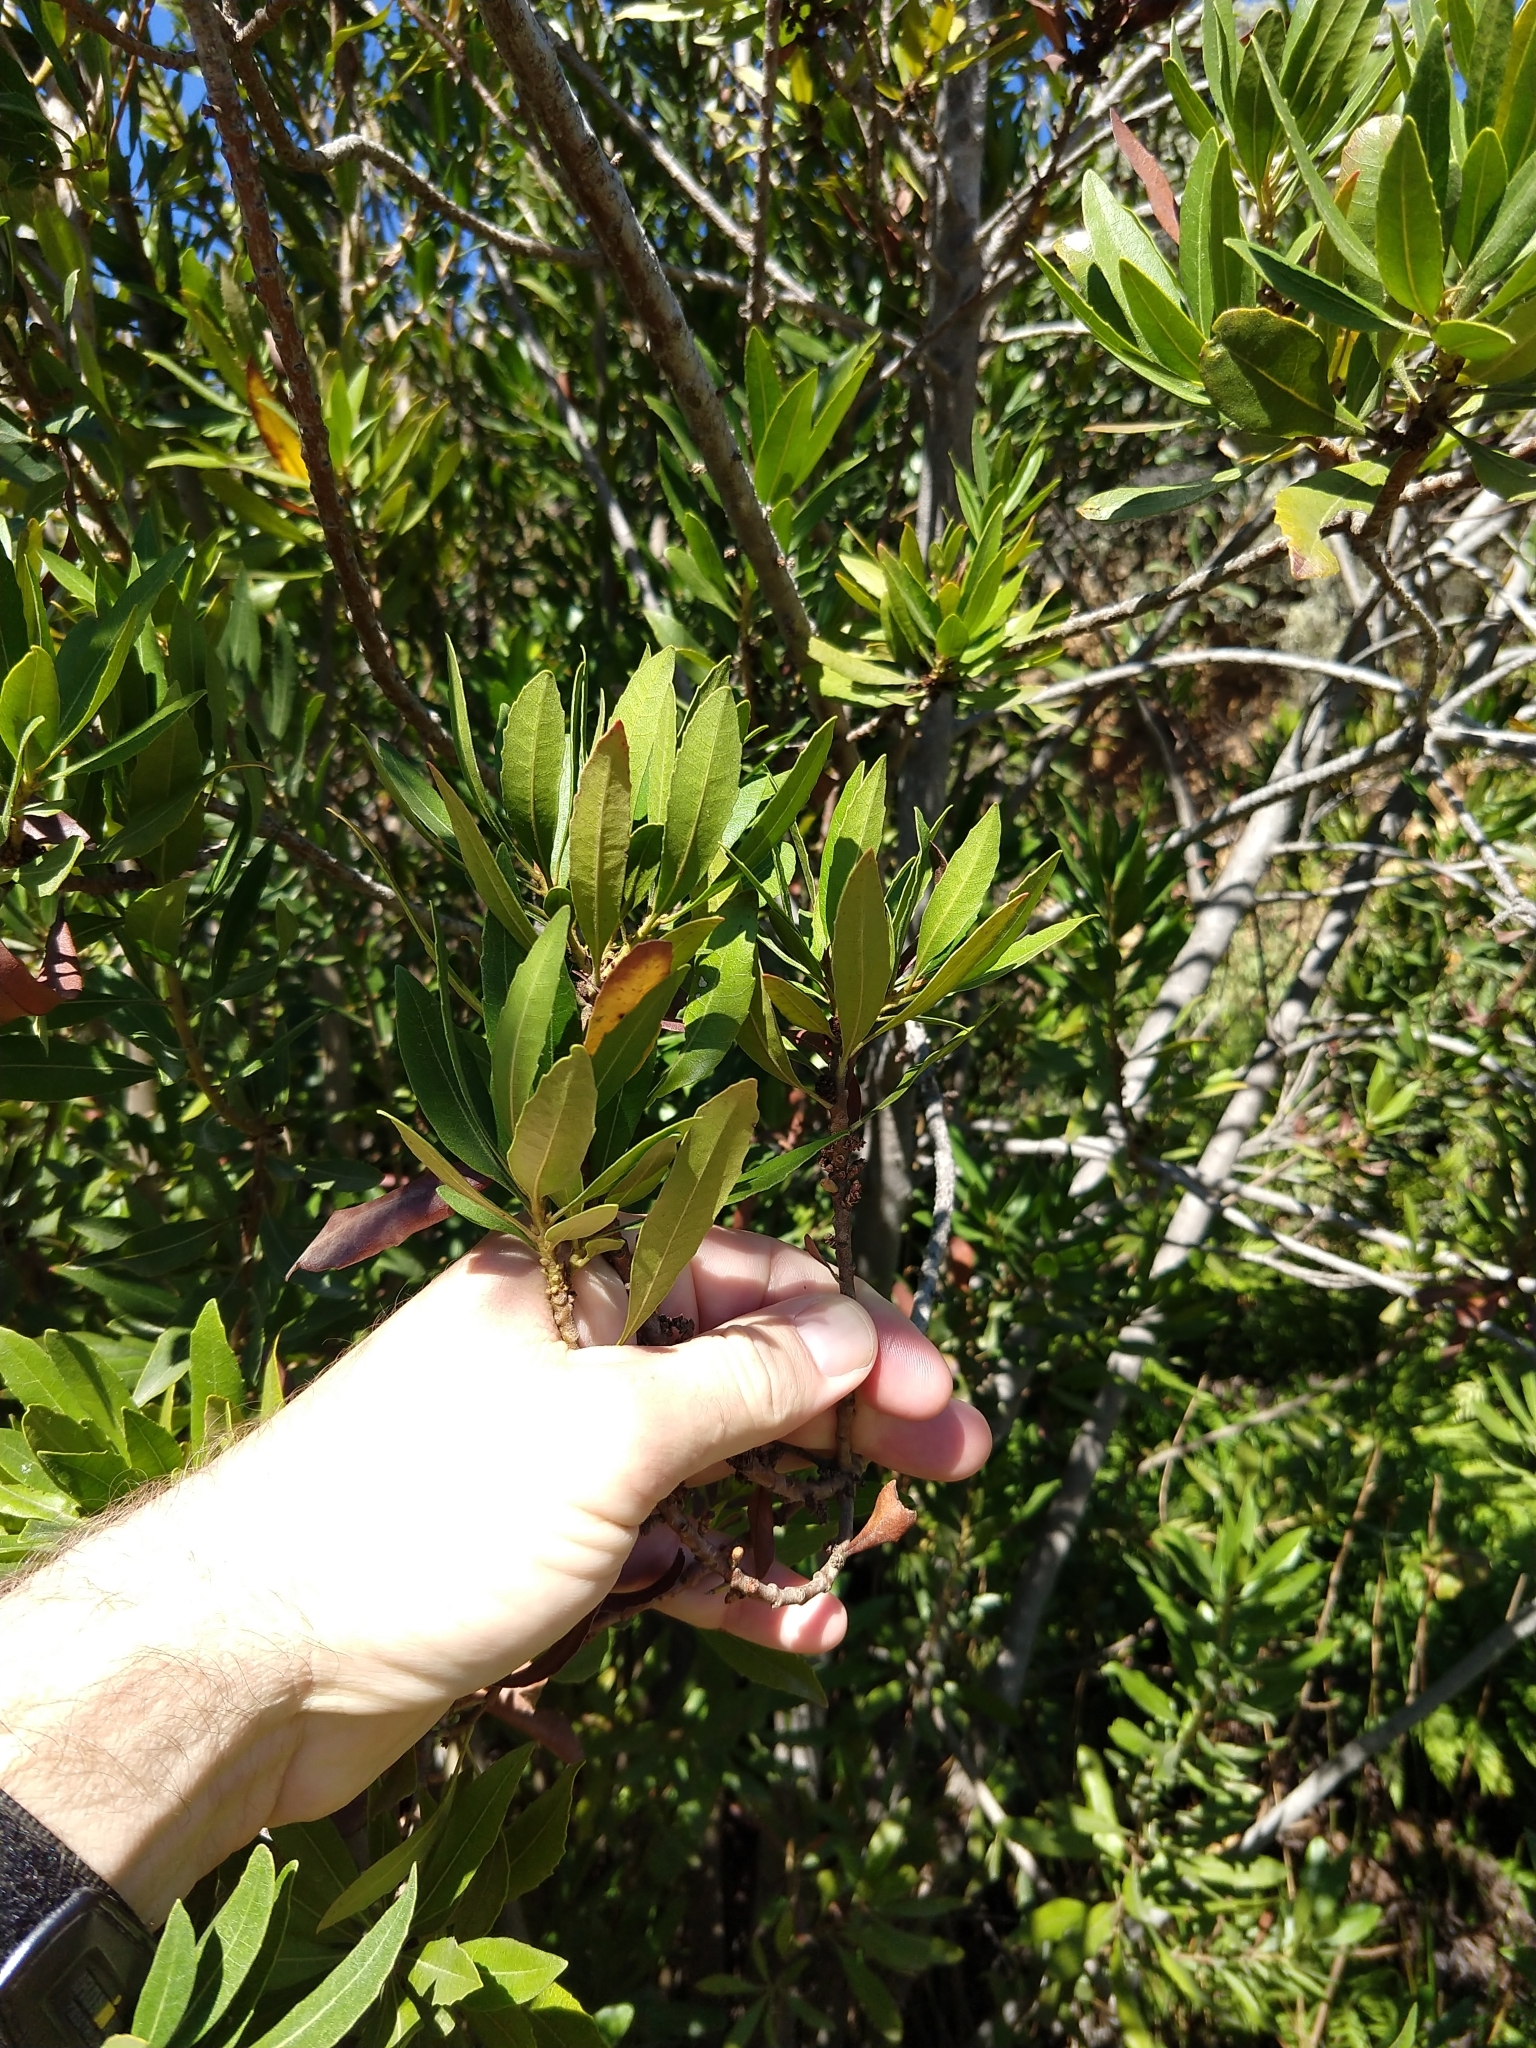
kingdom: Plantae
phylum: Tracheophyta
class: Magnoliopsida
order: Fagales
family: Myricaceae
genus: Morella
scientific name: Morella californica
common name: California wax-myrtle
